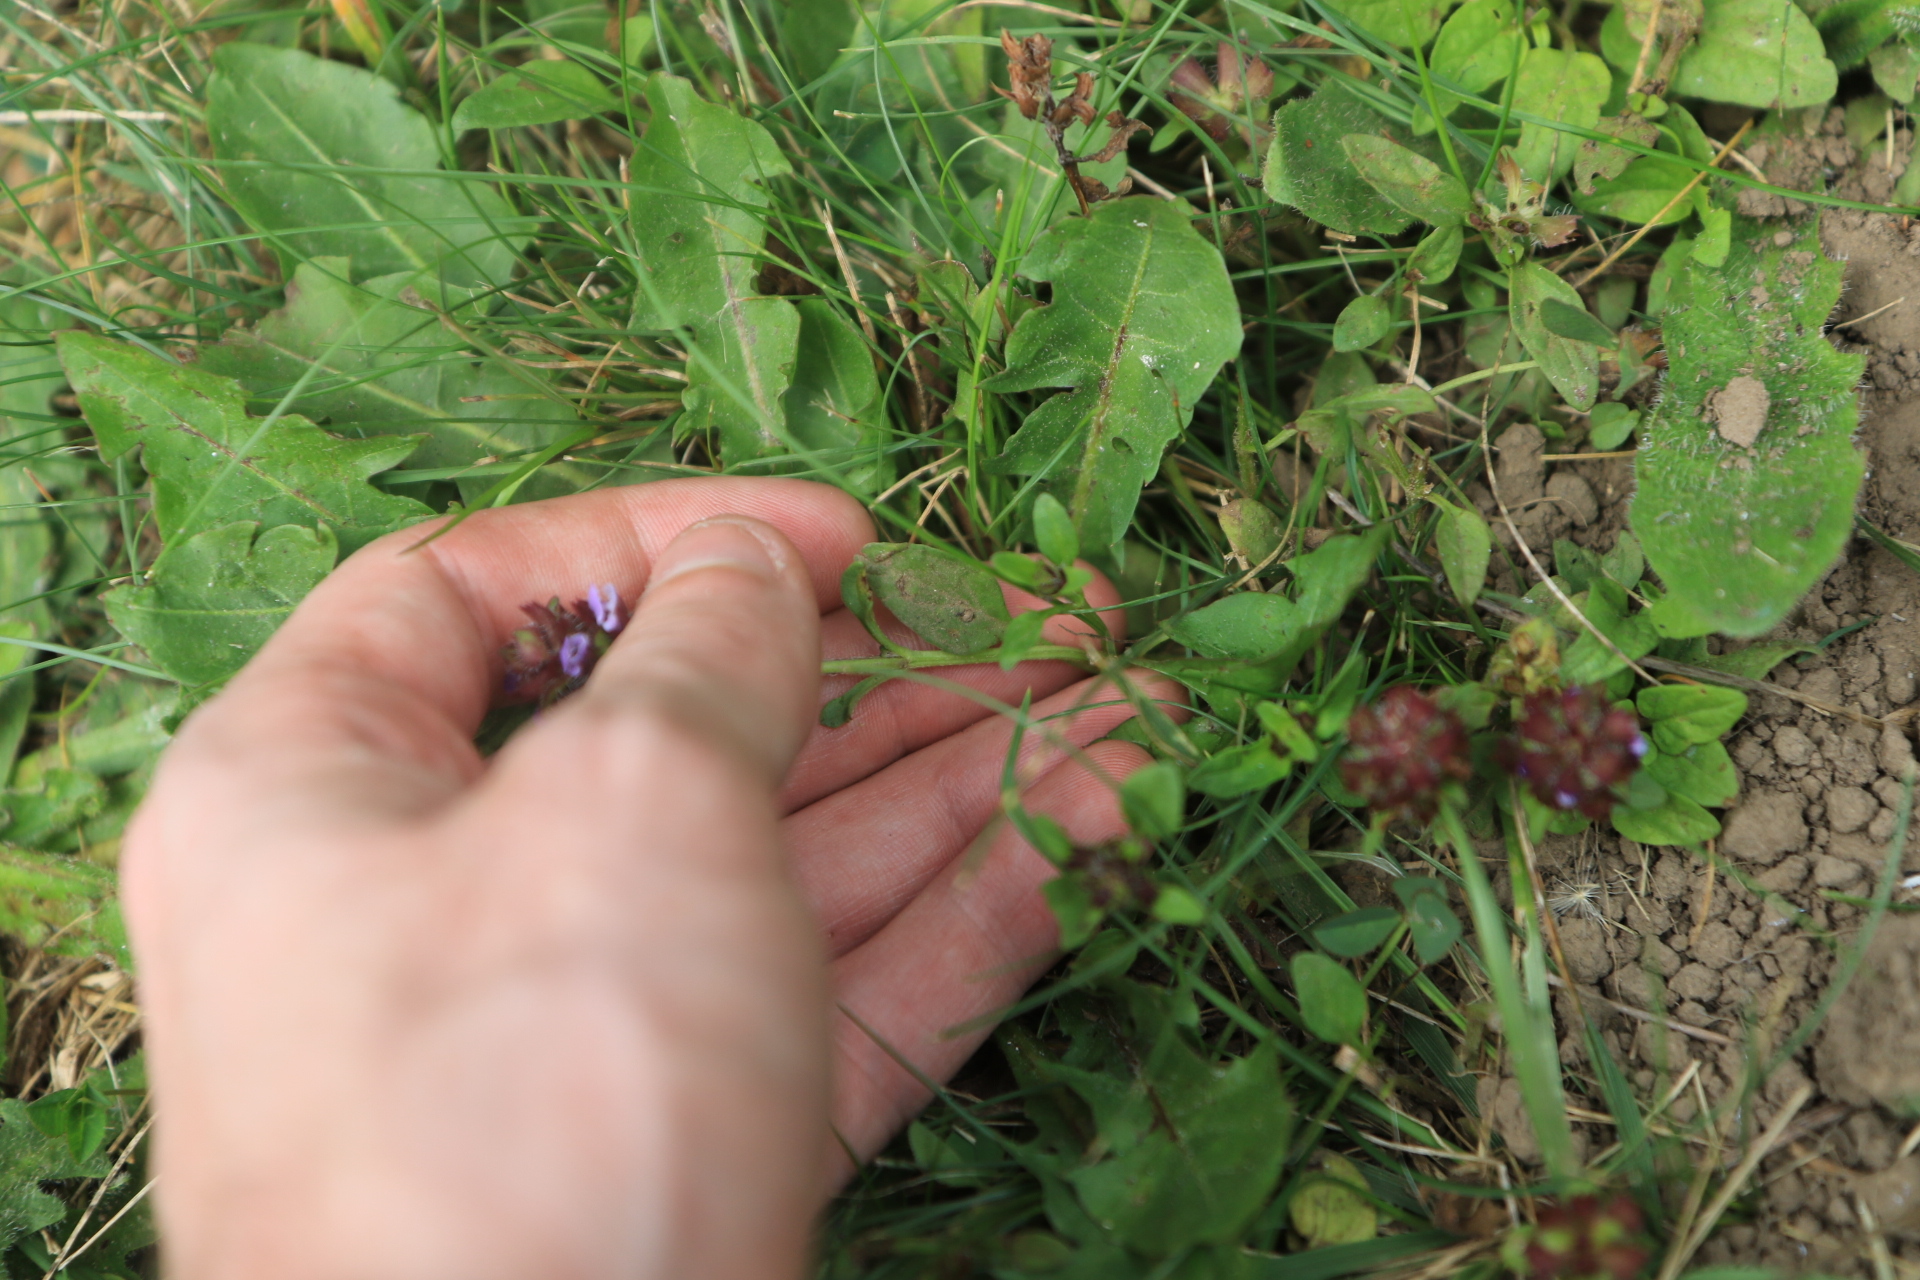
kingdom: Plantae
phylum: Tracheophyta
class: Magnoliopsida
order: Lamiales
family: Lamiaceae
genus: Prunella
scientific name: Prunella vulgaris
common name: Heal-all
